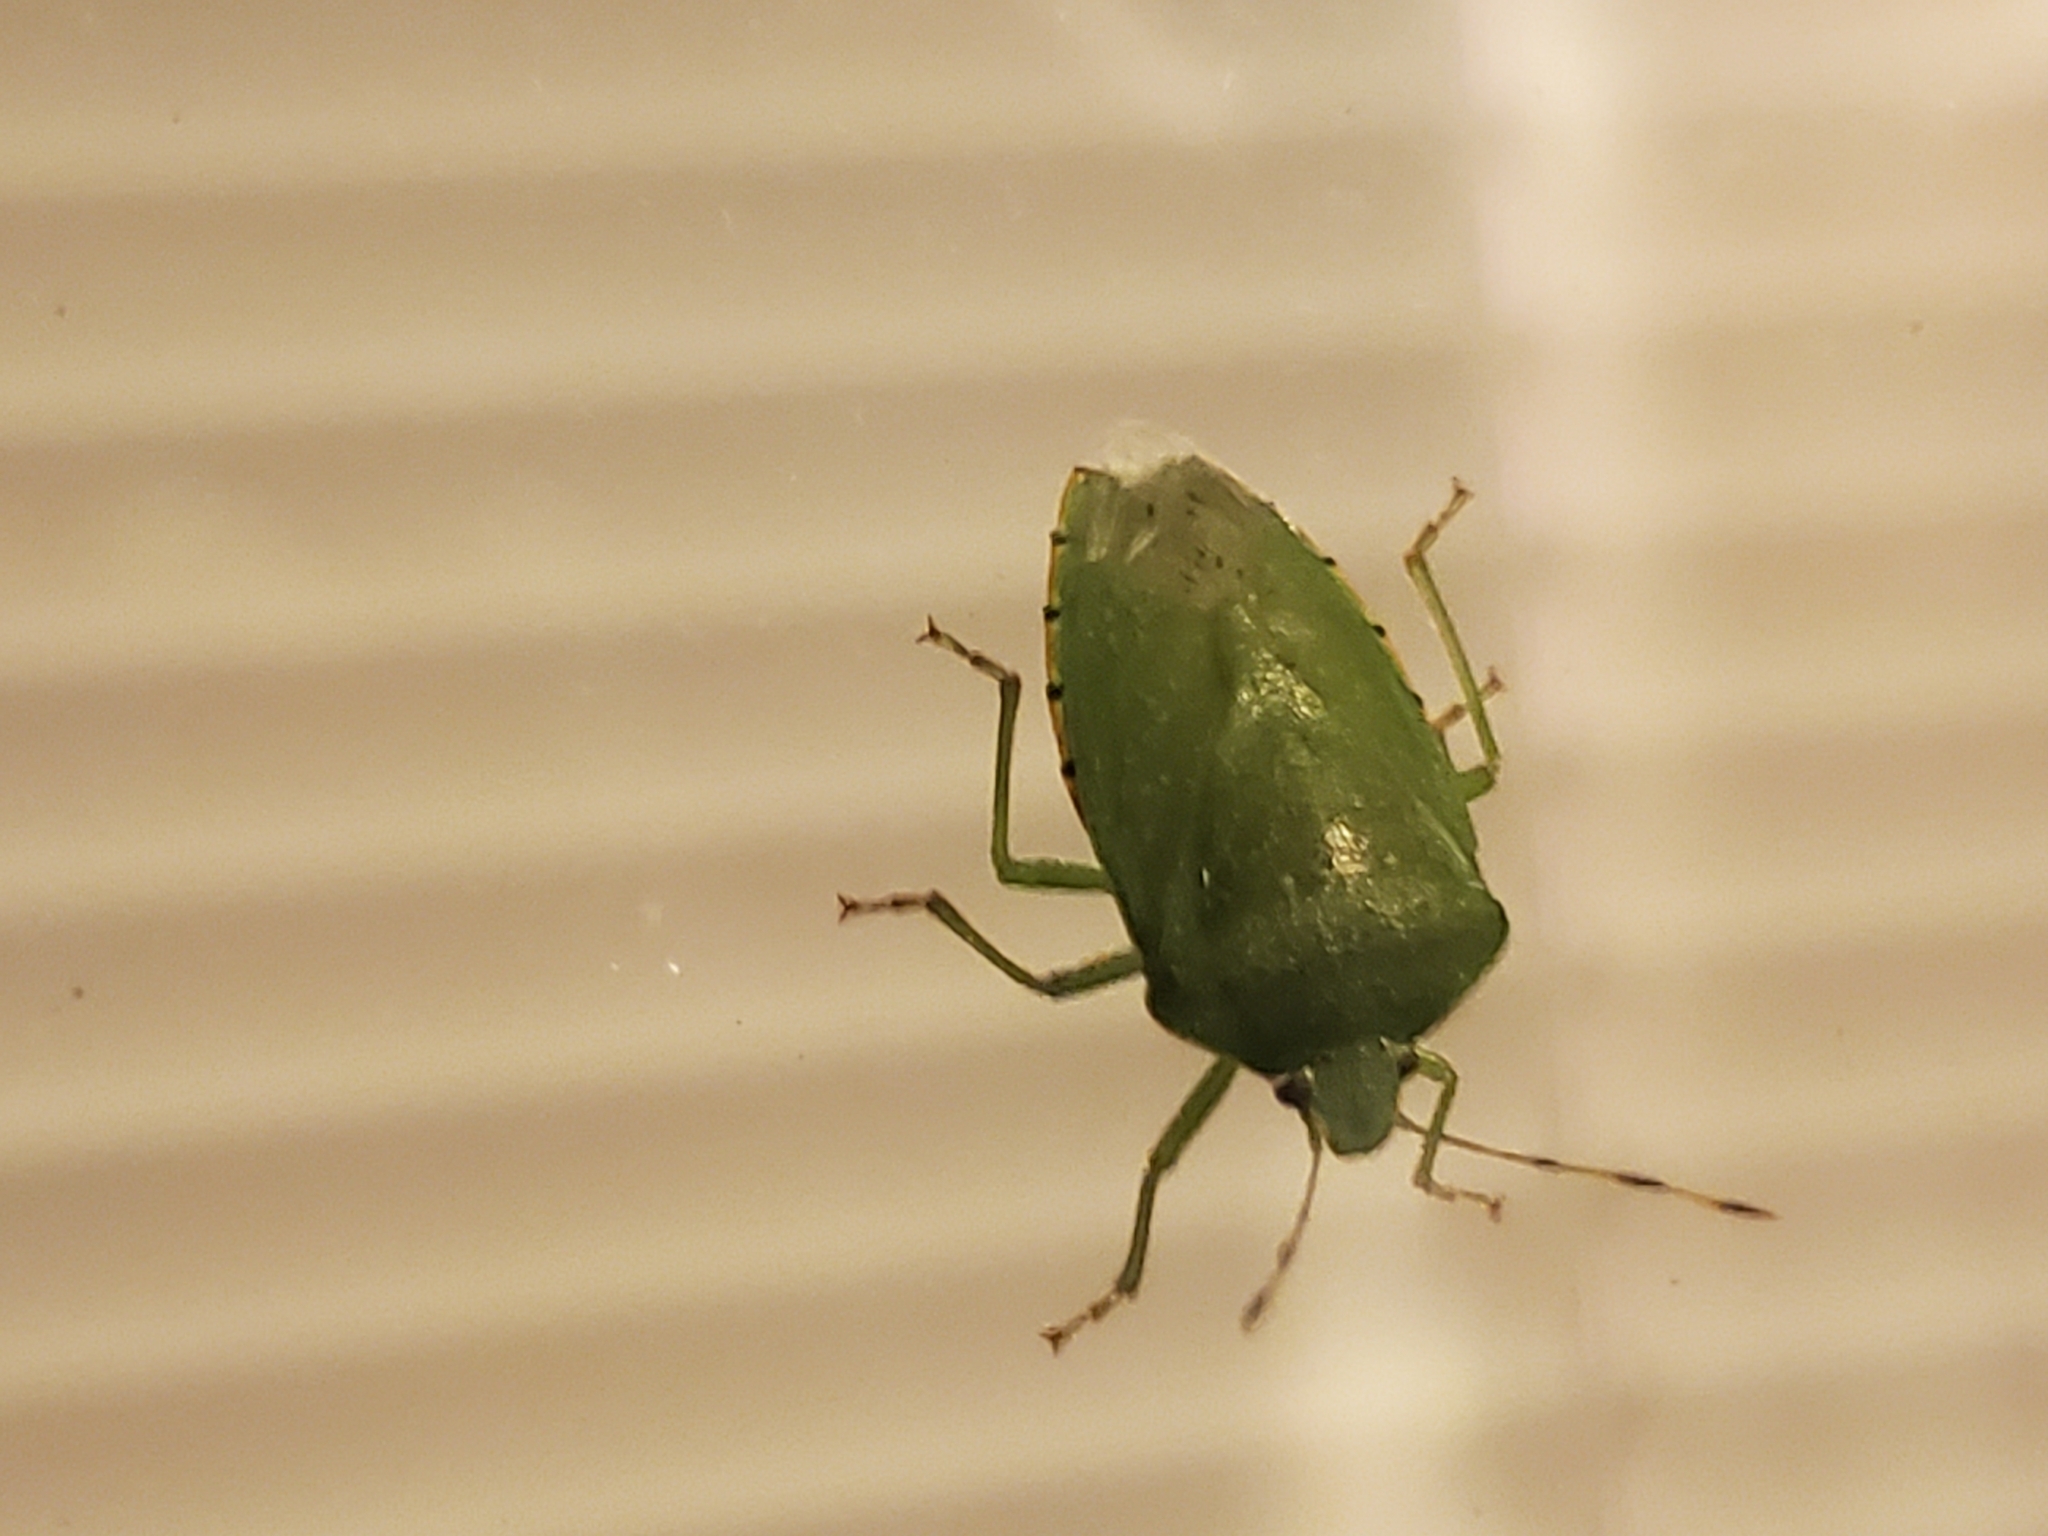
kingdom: Animalia
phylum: Arthropoda
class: Insecta
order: Hemiptera
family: Pentatomidae
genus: Chinavia
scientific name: Chinavia hilaris
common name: Green stink bug
